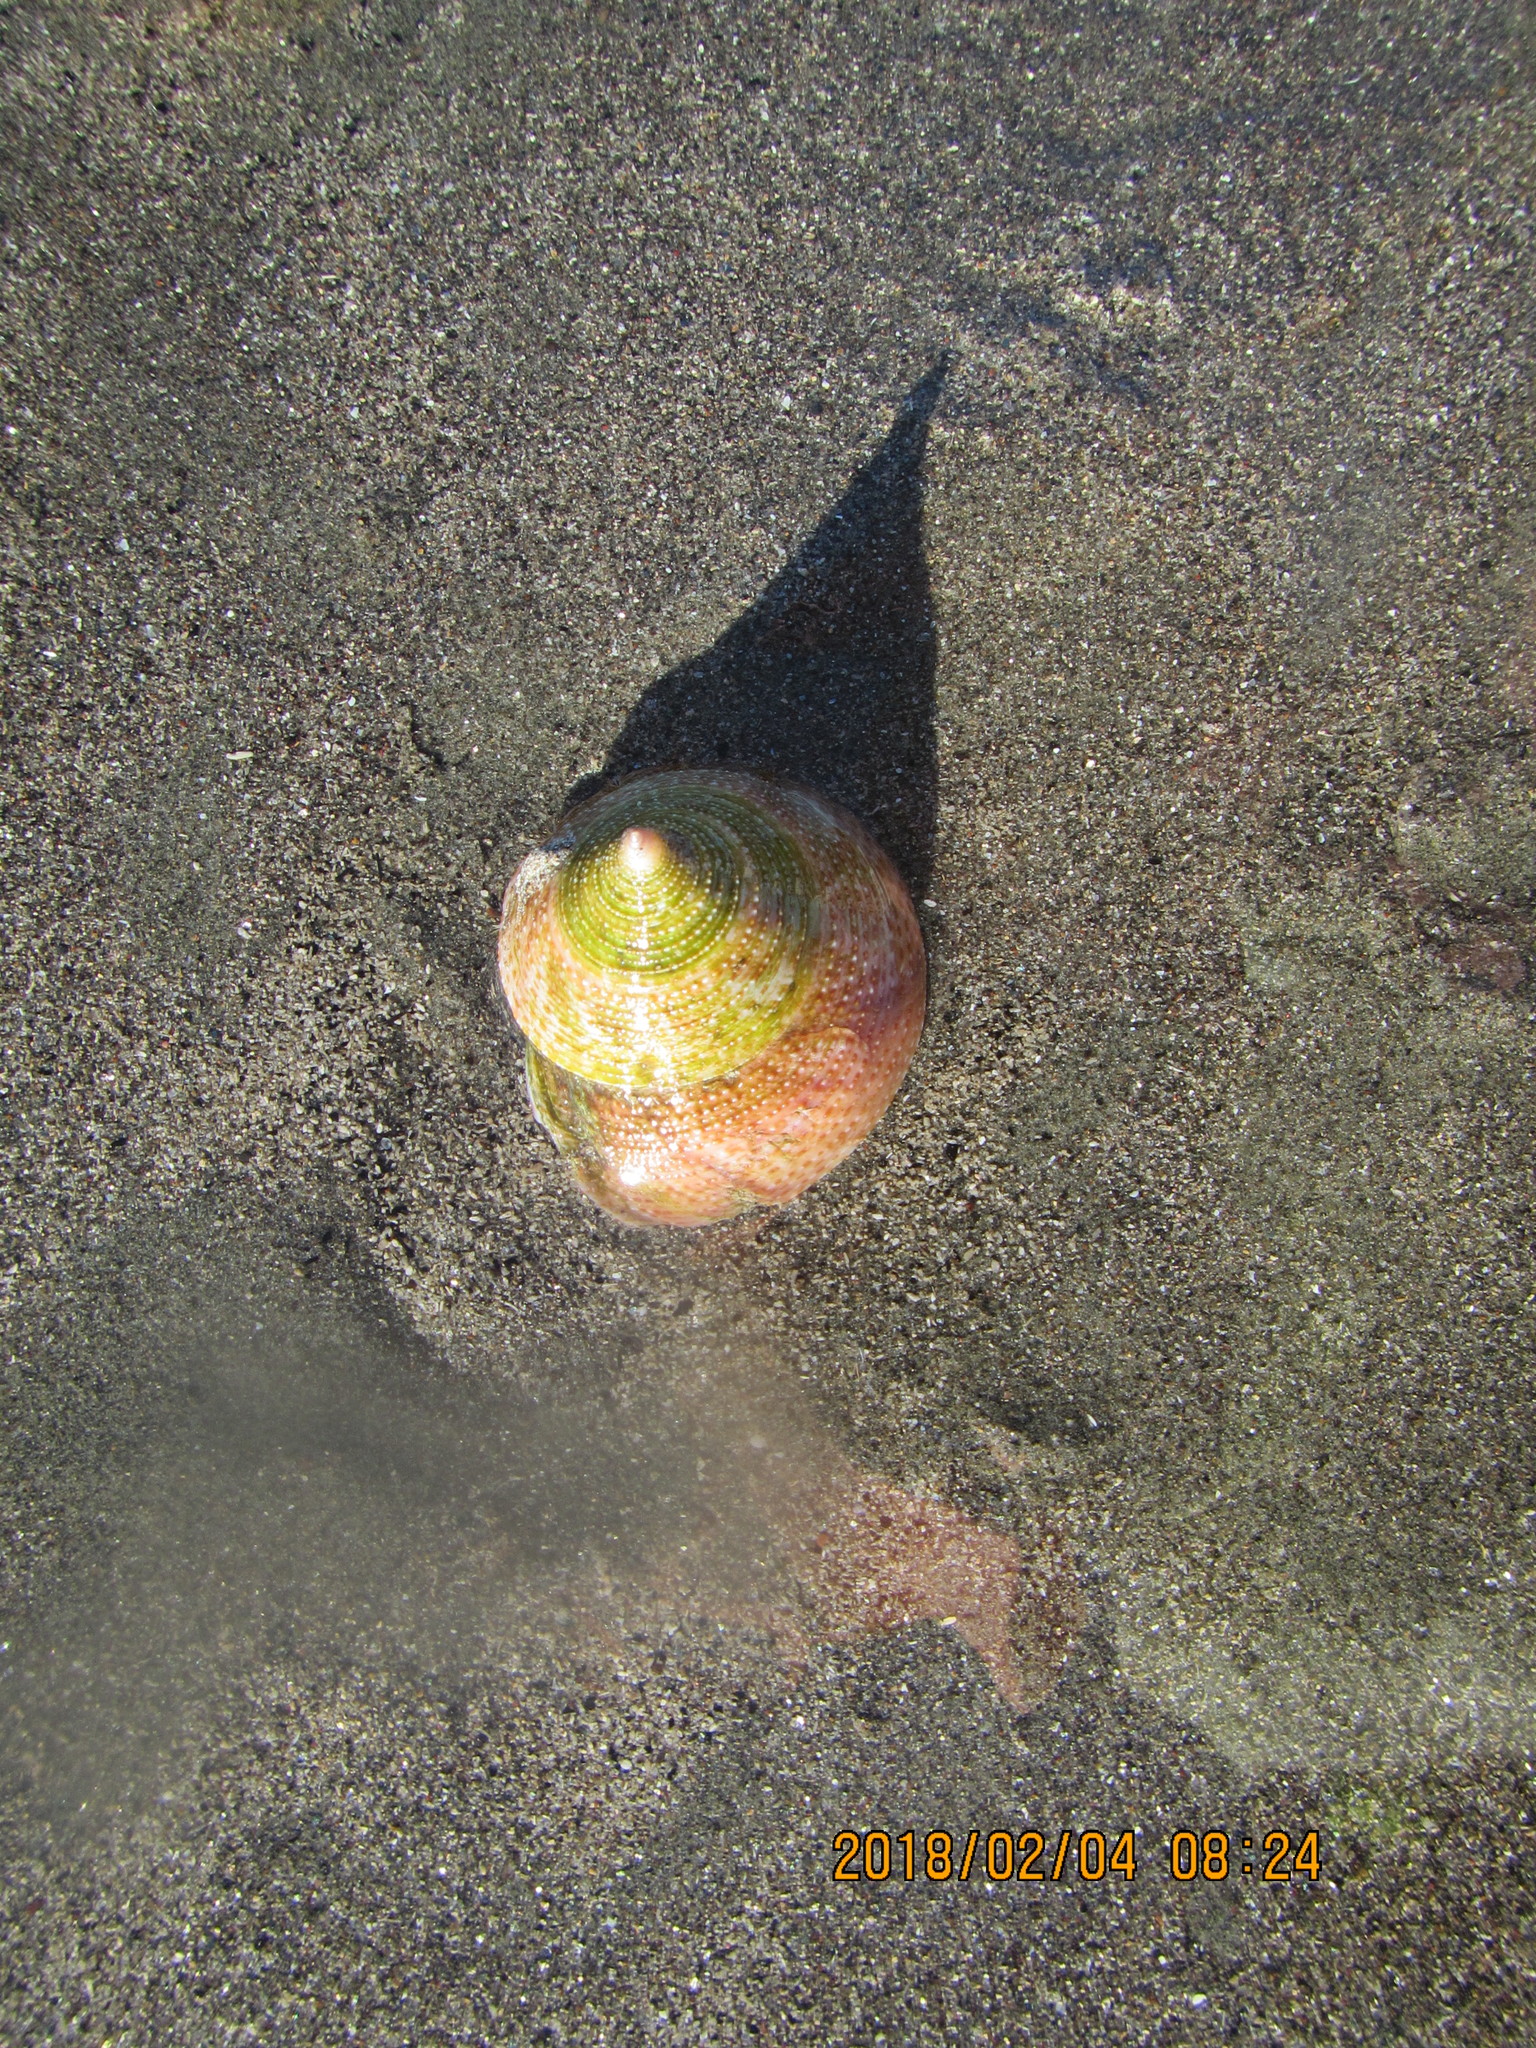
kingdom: Animalia
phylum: Mollusca
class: Gastropoda
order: Trochida
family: Calliostomatidae
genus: Maurea
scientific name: Maurea selecta
